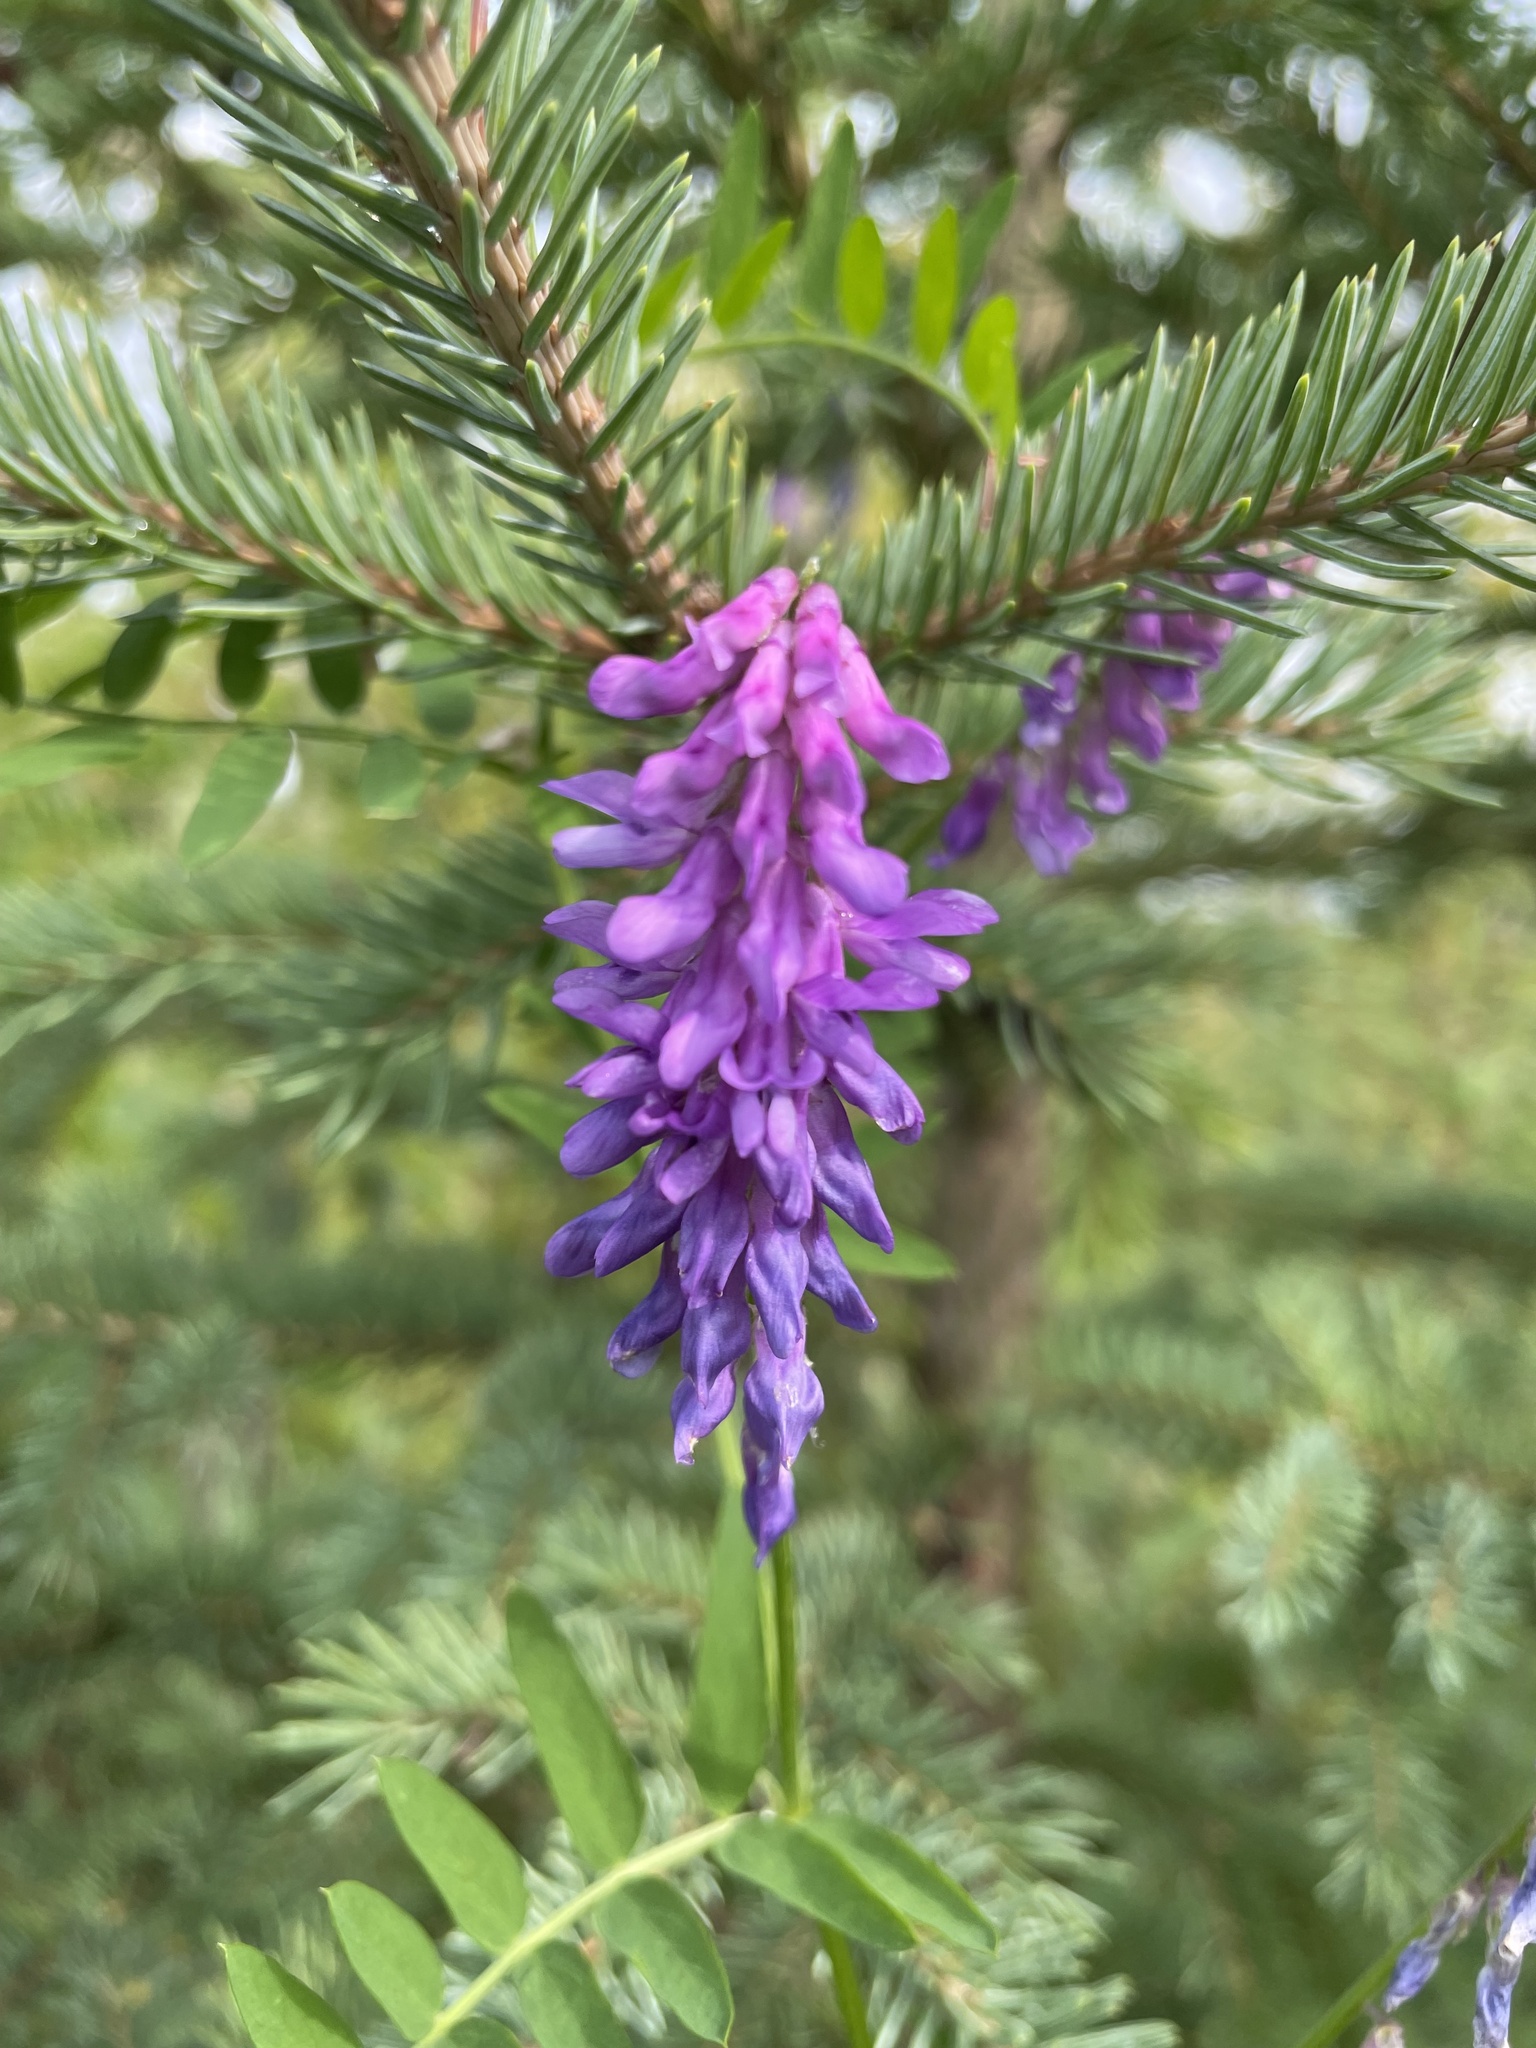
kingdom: Plantae
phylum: Tracheophyta
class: Magnoliopsida
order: Fabales
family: Fabaceae
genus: Vicia
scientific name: Vicia cracca
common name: Bird vetch
